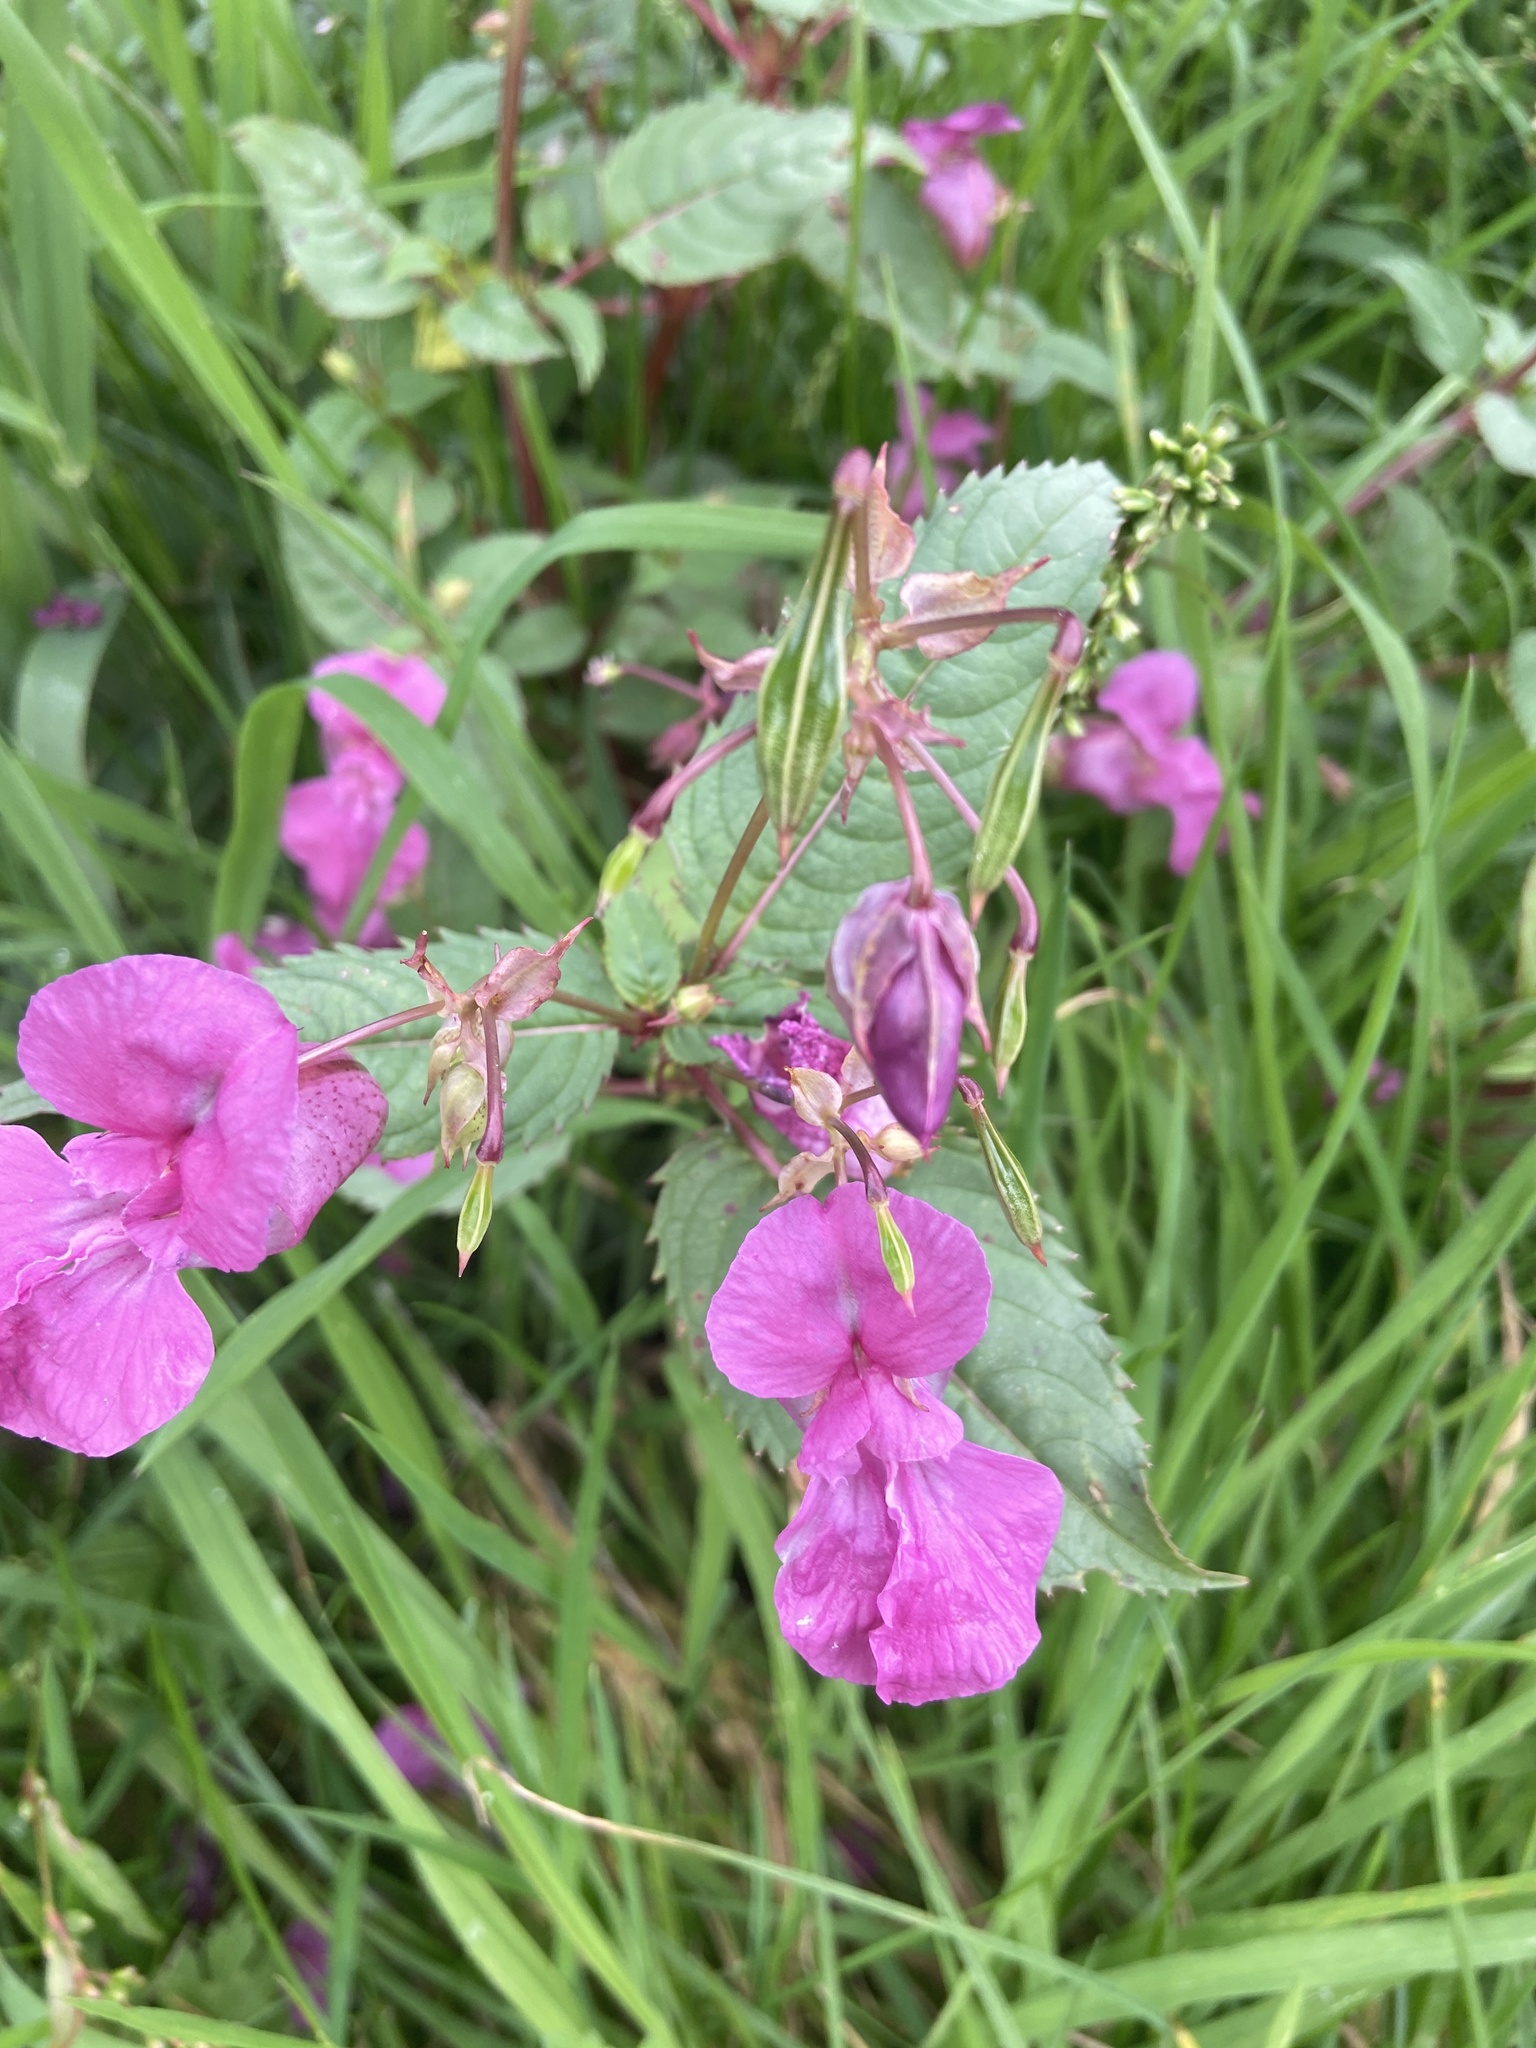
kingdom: Plantae
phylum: Tracheophyta
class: Magnoliopsida
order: Ericales
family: Balsaminaceae
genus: Impatiens
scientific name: Impatiens glandulifera
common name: Himalayan balsam
